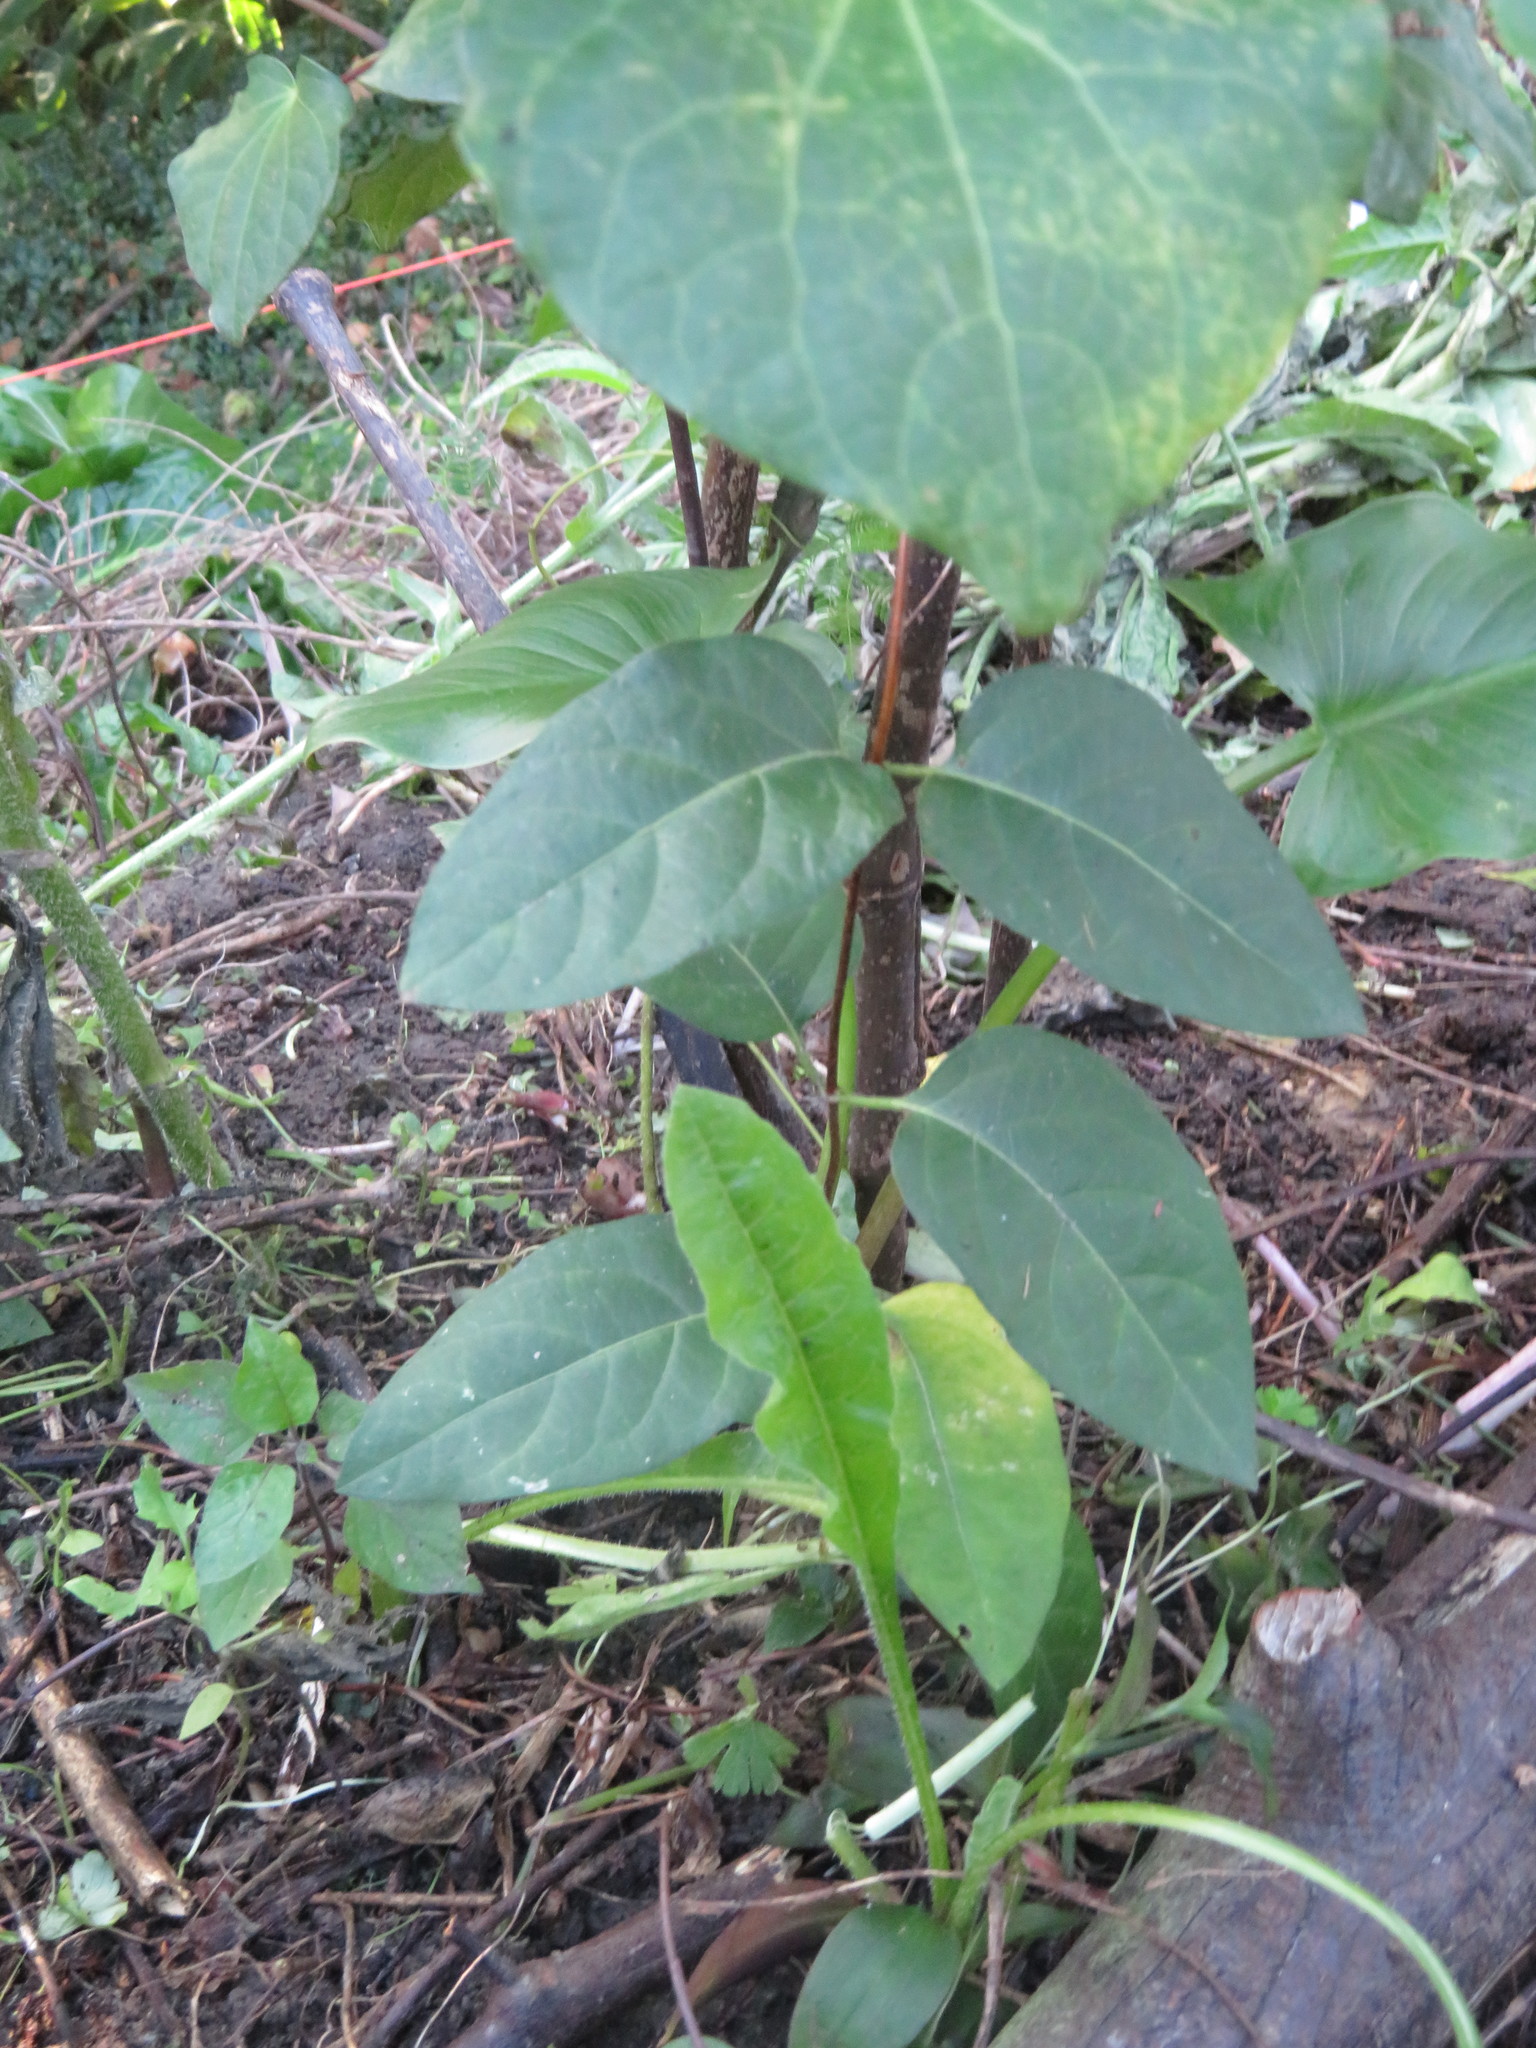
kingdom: Plantae
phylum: Tracheophyta
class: Magnoliopsida
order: Gentianales
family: Apocynaceae
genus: Araujia
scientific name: Araujia sericifera
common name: White bladderflower
